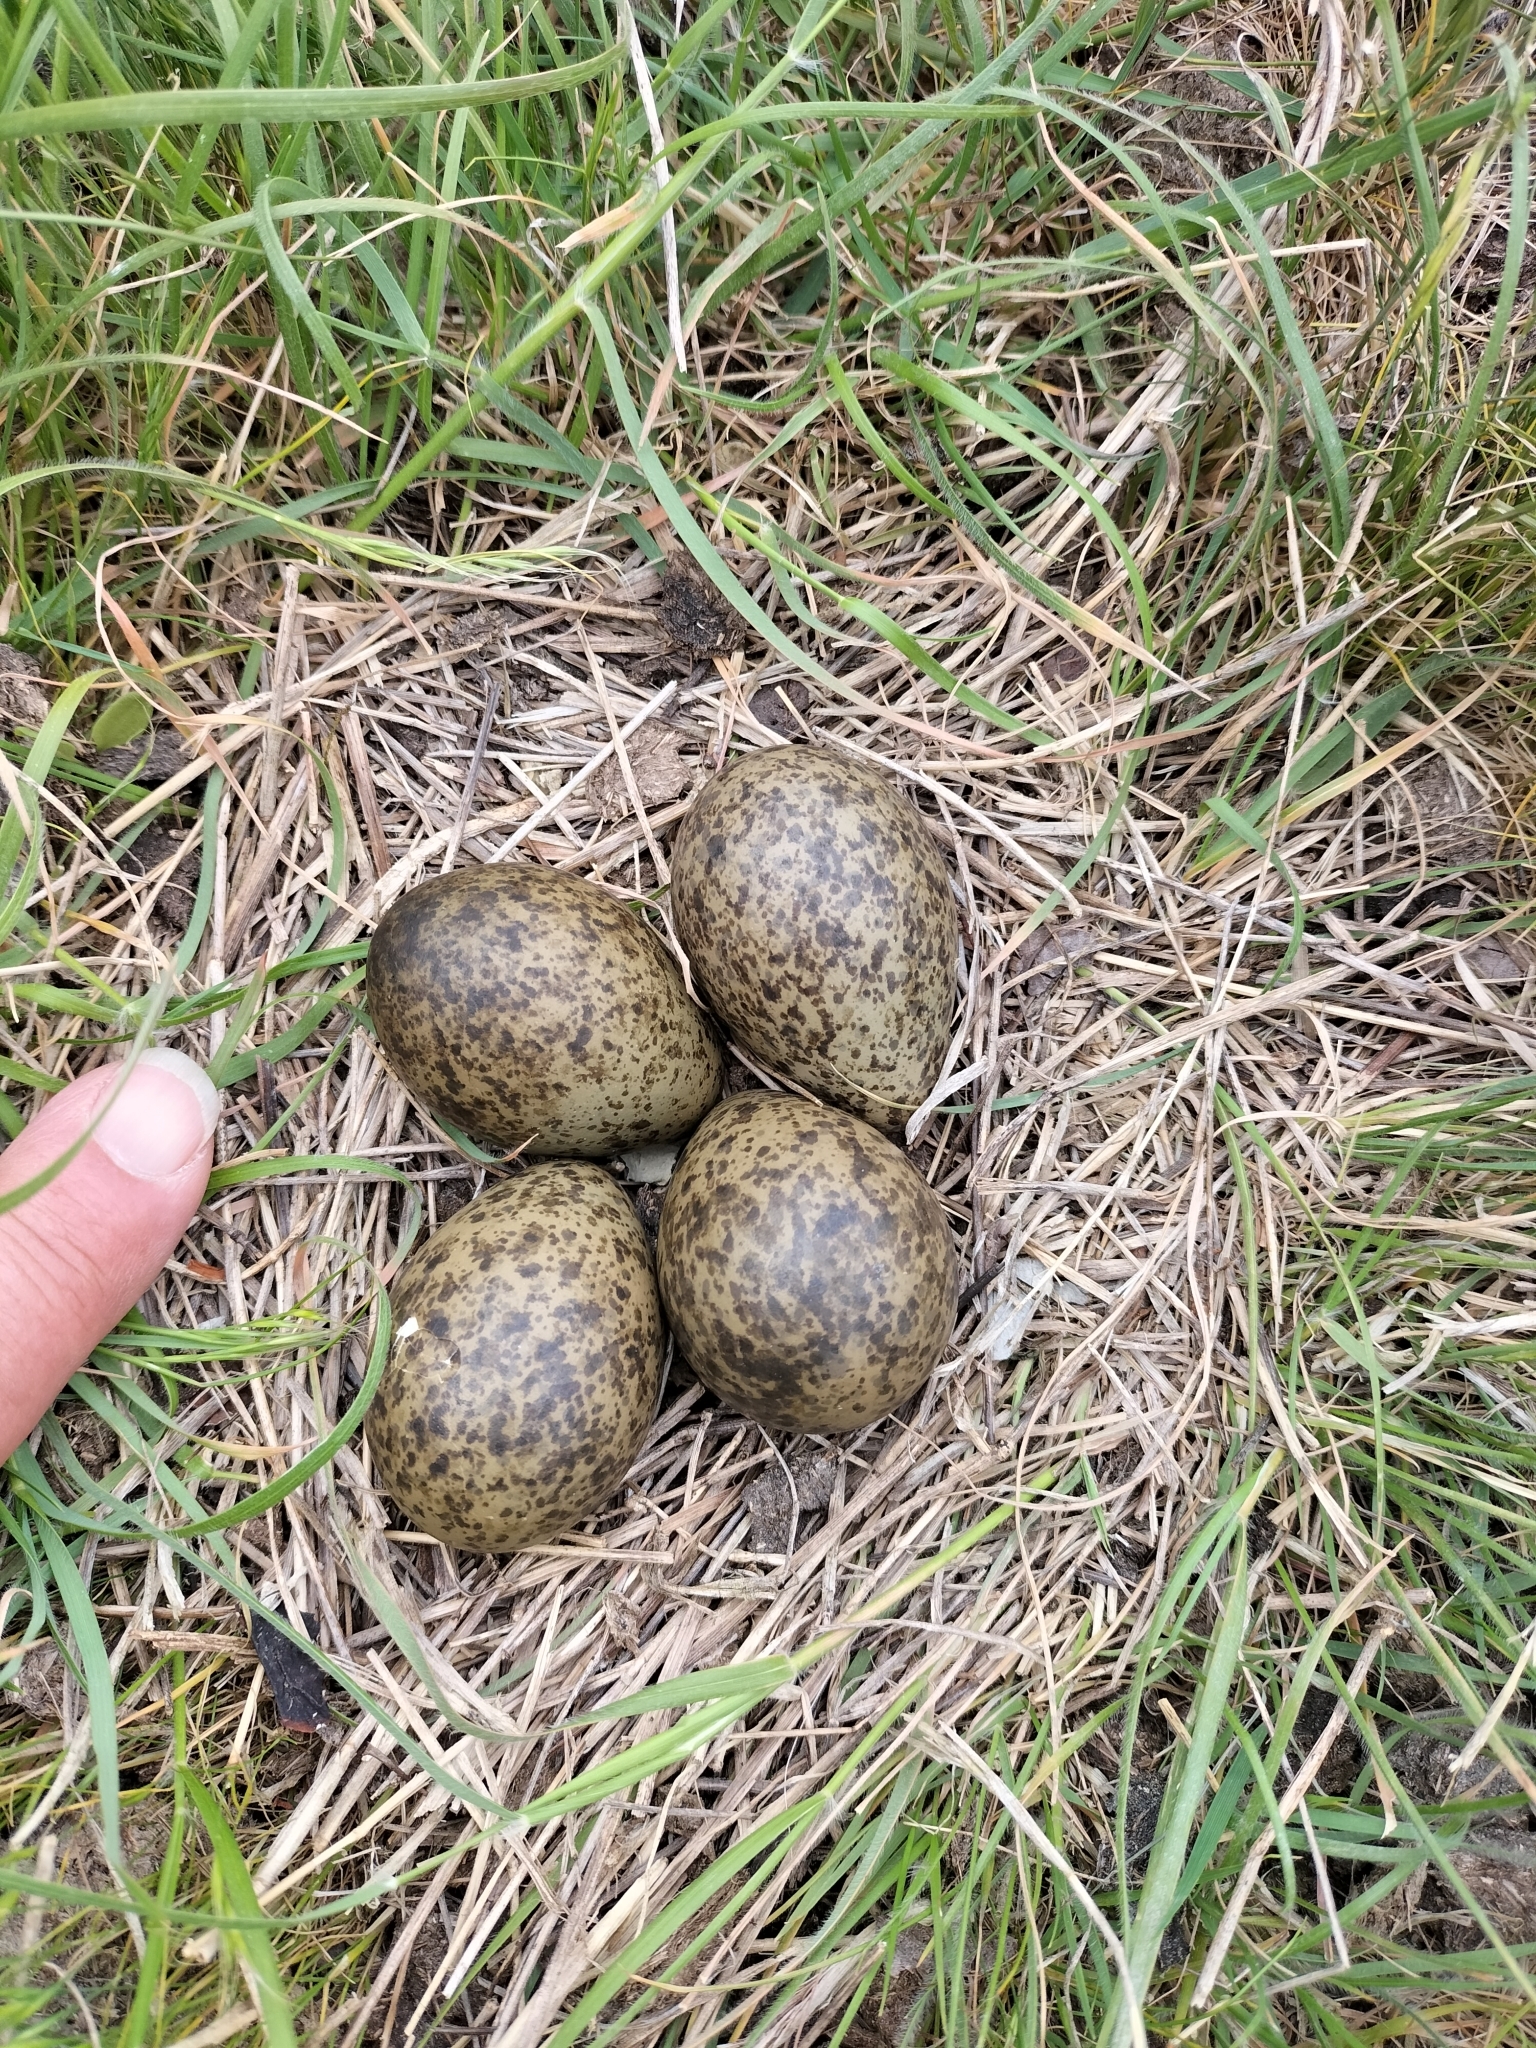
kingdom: Animalia
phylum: Chordata
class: Aves
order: Charadriiformes
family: Charadriidae
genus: Vanellus
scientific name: Vanellus miles
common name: Masked lapwing
